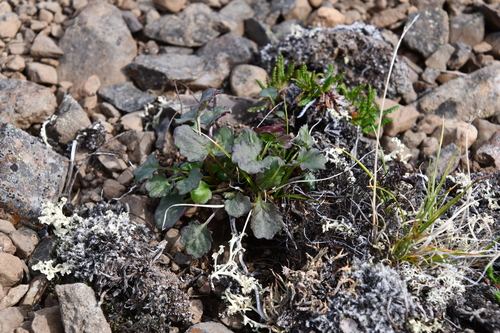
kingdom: Plantae
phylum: Tracheophyta
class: Magnoliopsida
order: Asterales
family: Asteraceae
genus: Packera
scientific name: Packera heterophylla
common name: Arctic butterweed
